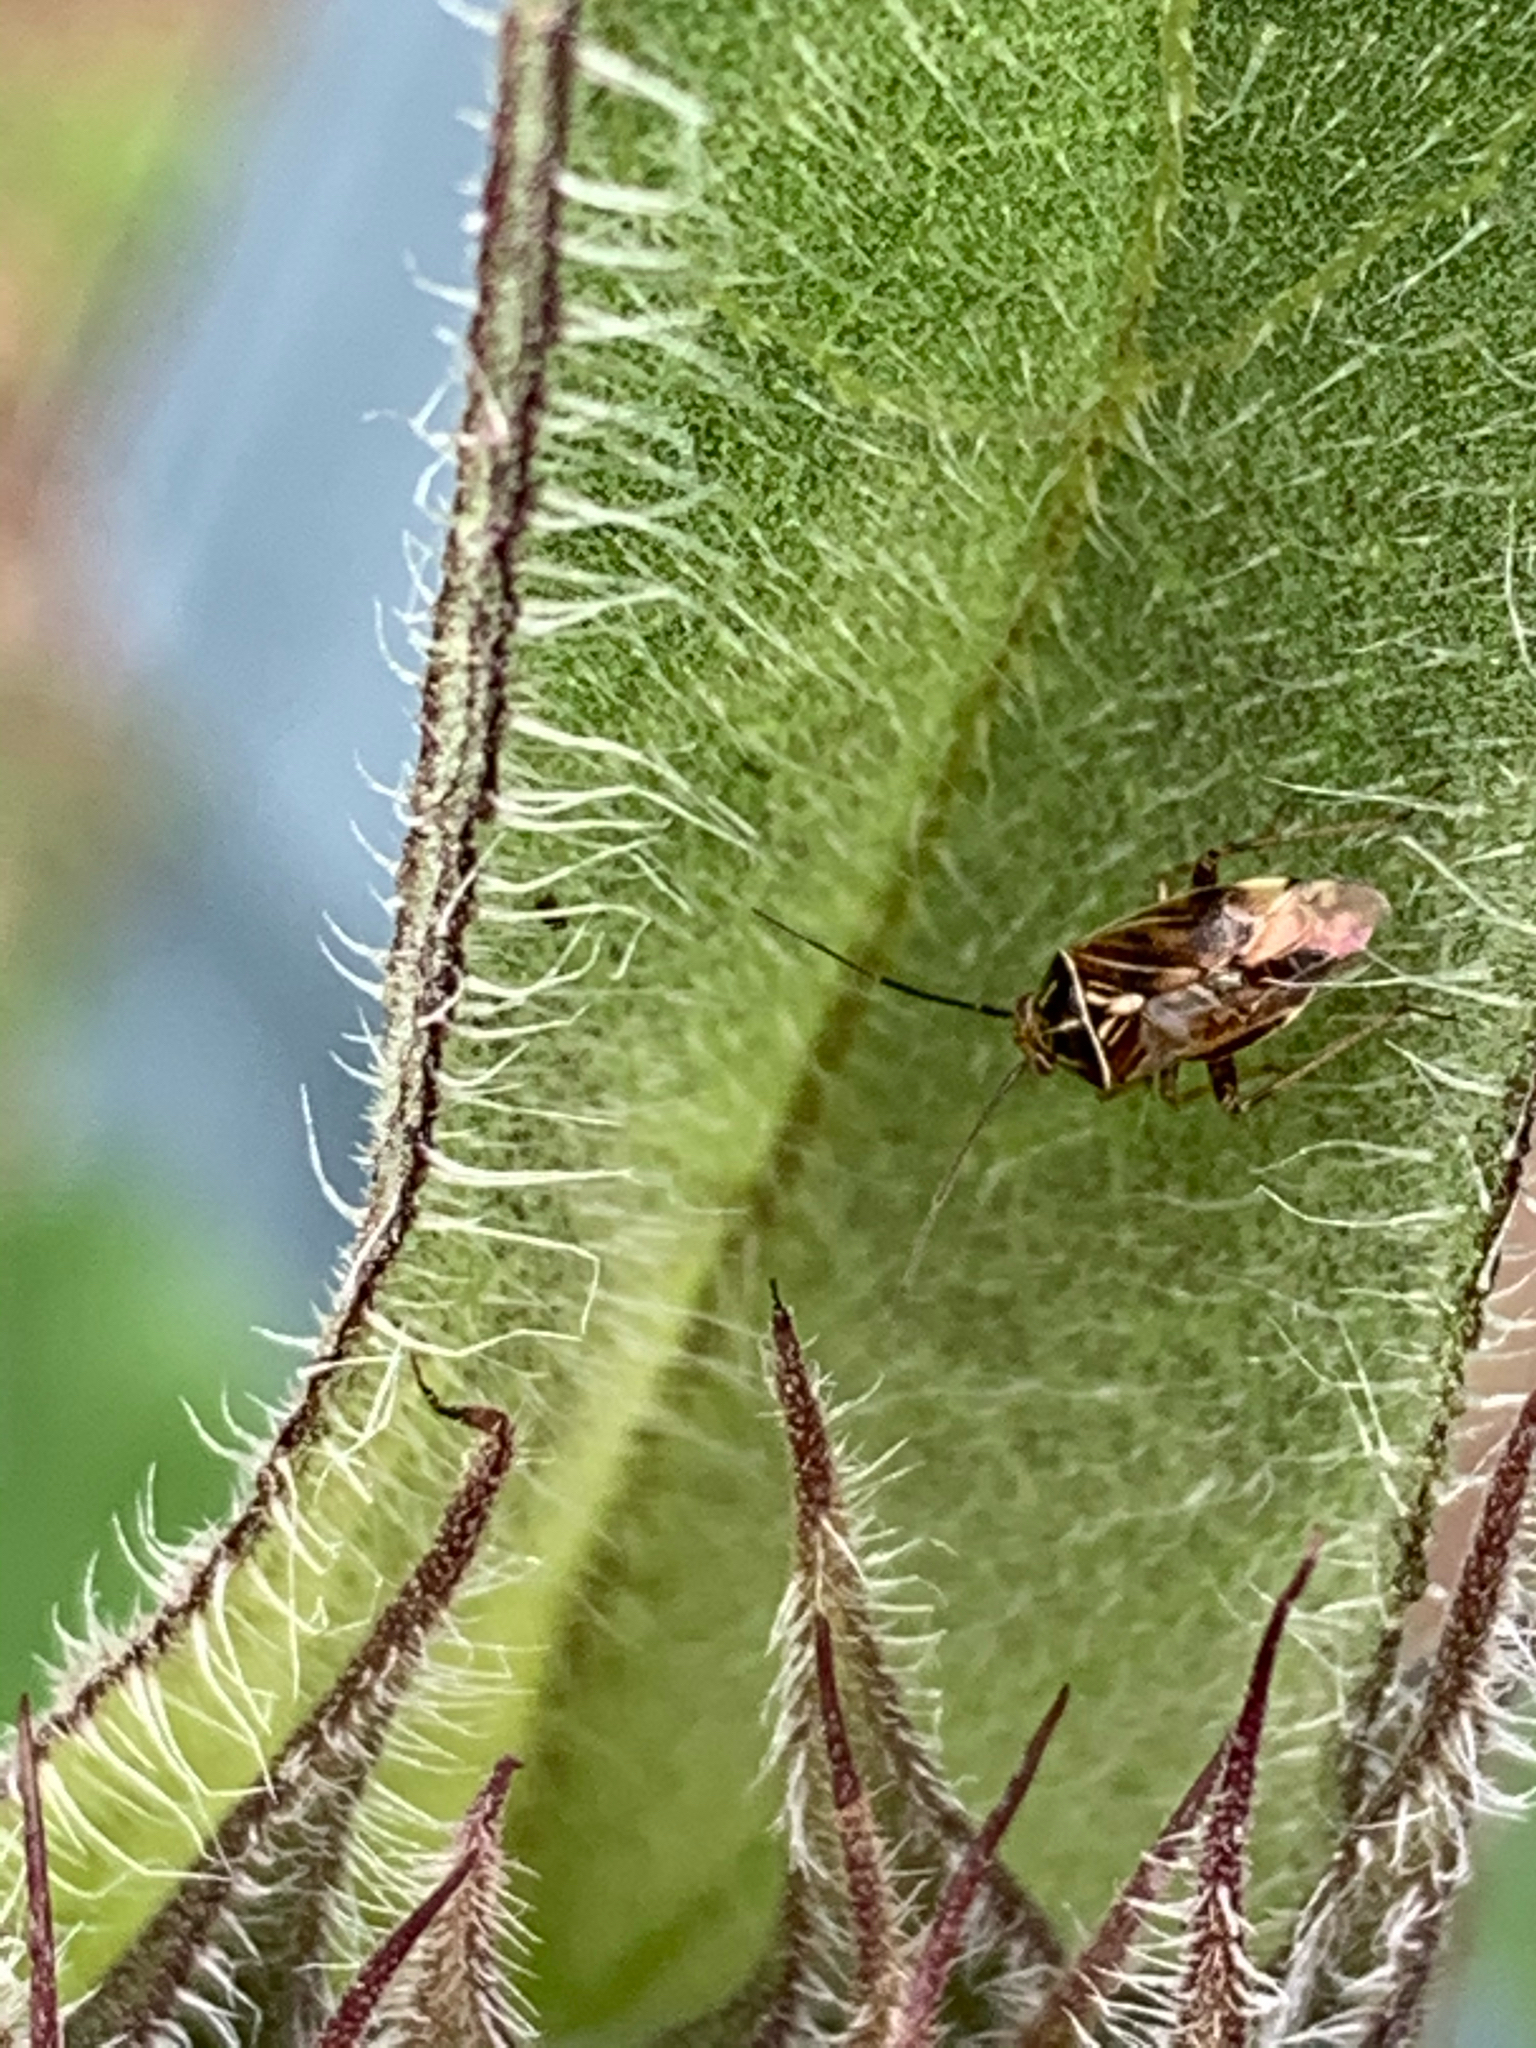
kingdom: Animalia
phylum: Arthropoda
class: Insecta
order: Hemiptera
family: Miridae
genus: Lygus
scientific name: Lygus lineolaris
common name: North american tarnished plant bug
